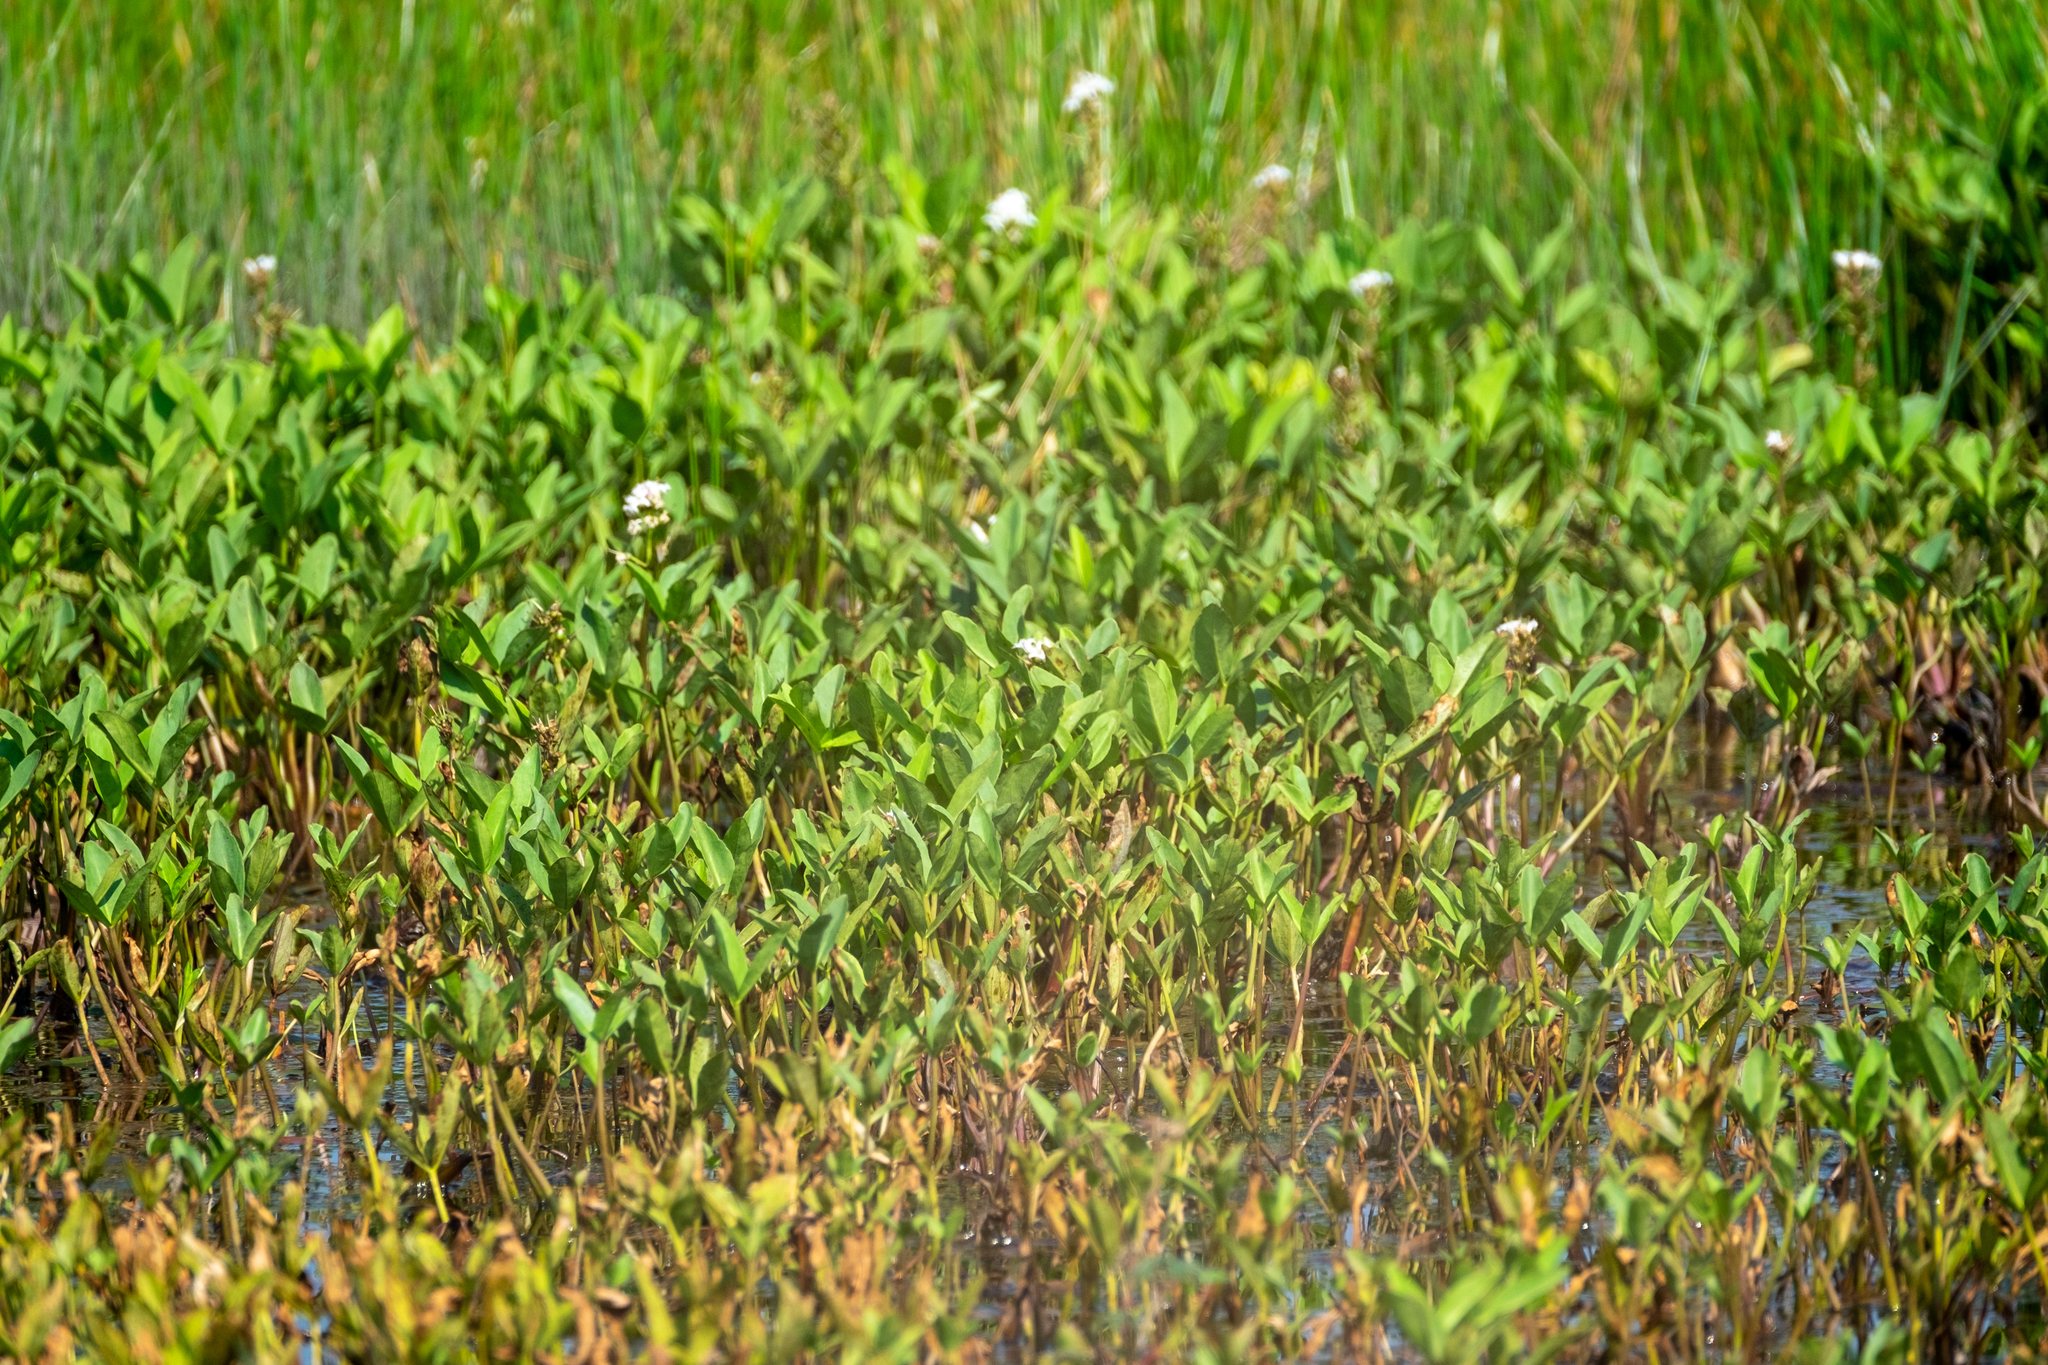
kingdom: Plantae
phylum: Tracheophyta
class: Magnoliopsida
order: Asterales
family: Menyanthaceae
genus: Menyanthes
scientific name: Menyanthes trifoliata
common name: Bogbean
